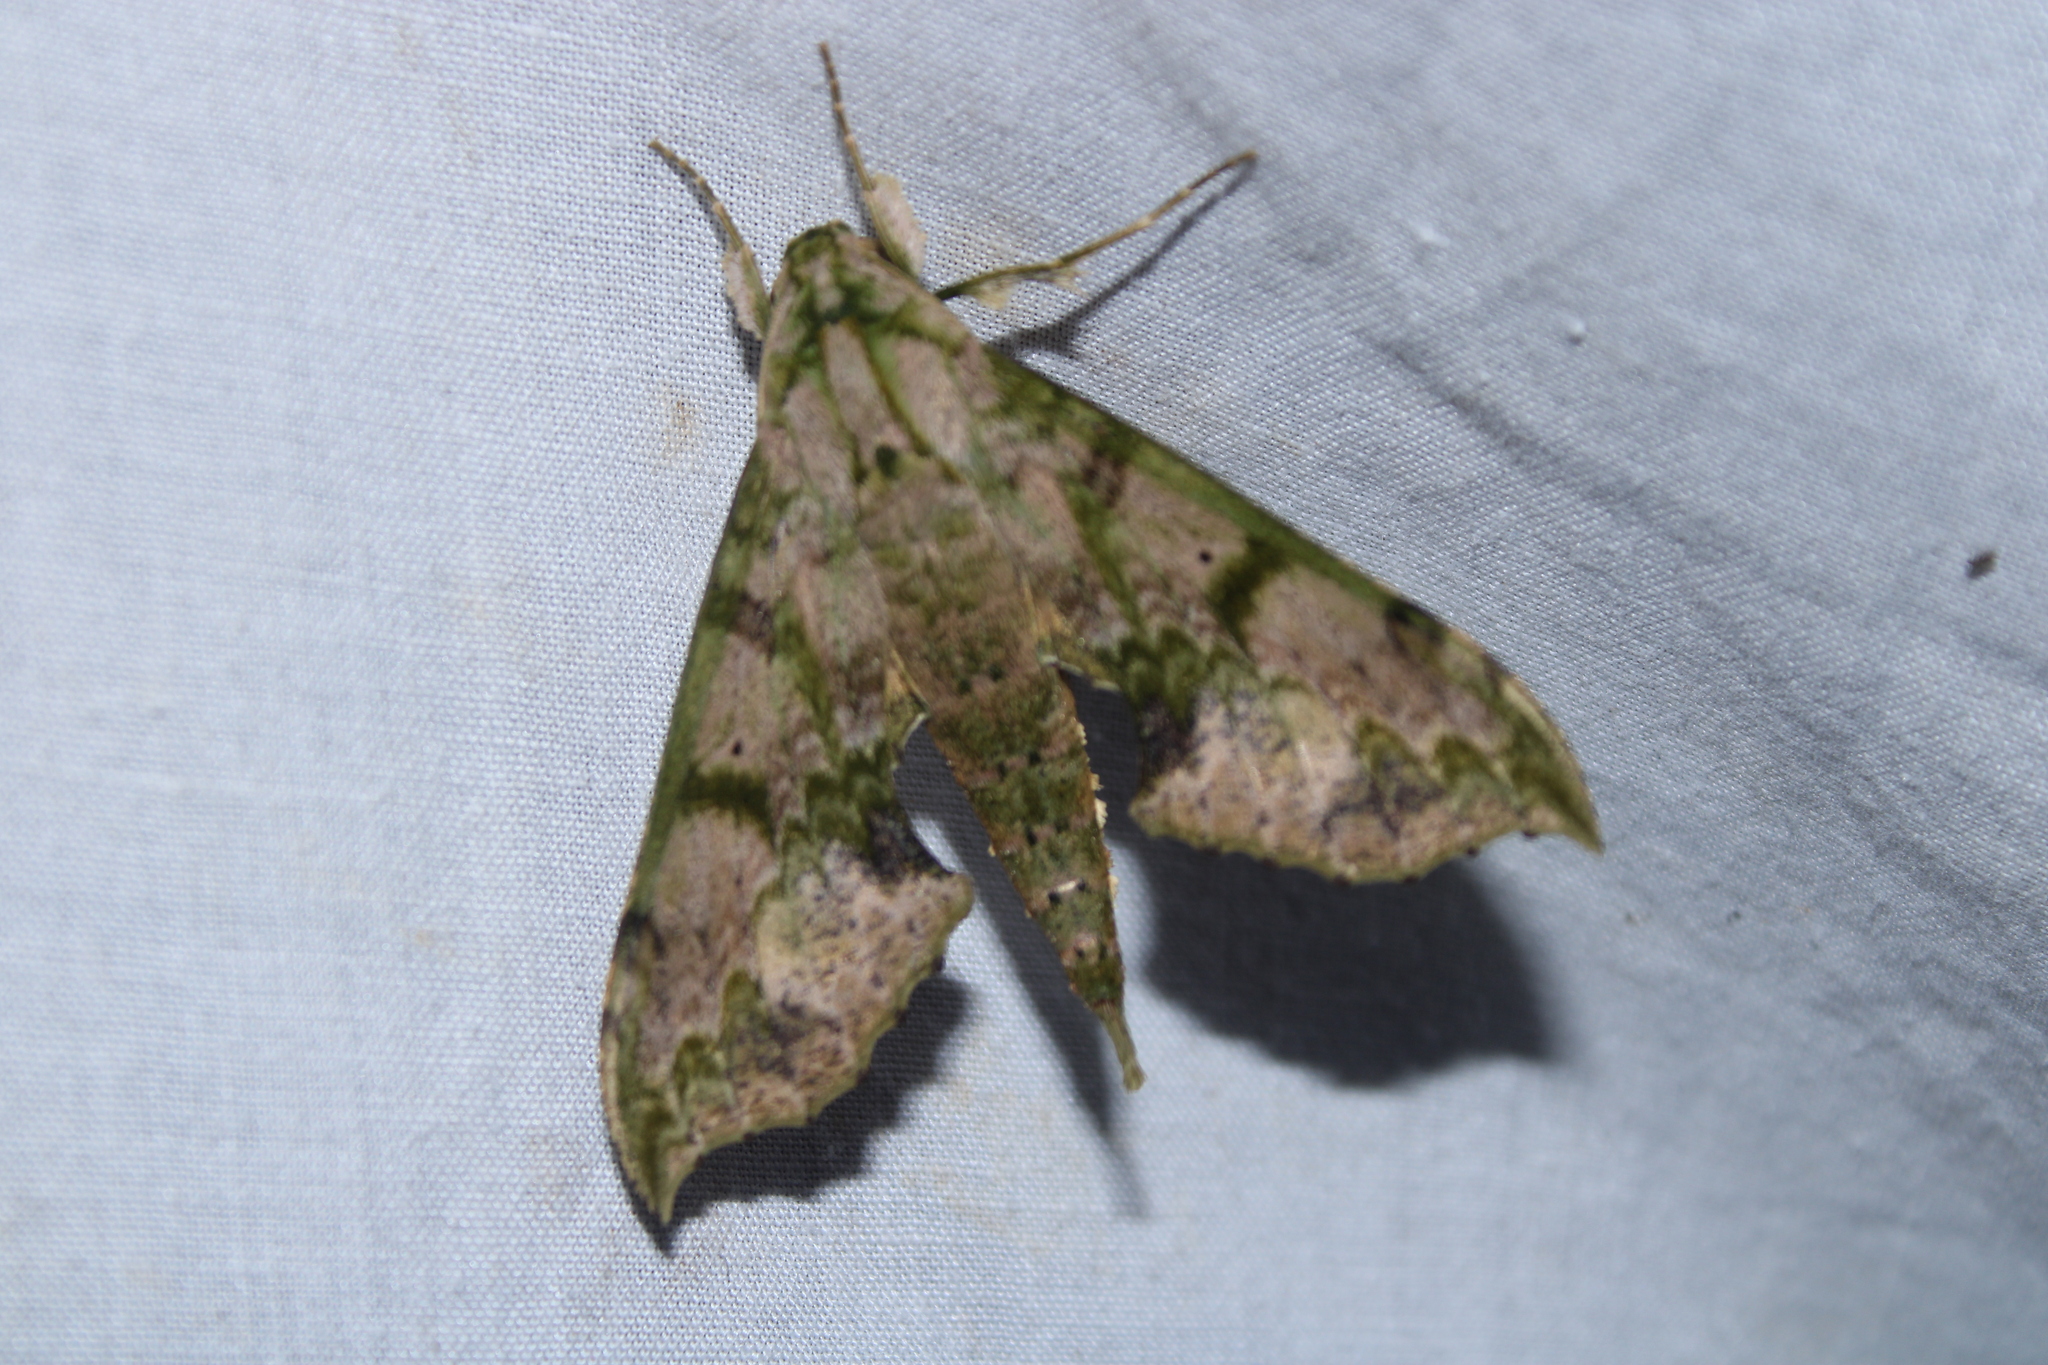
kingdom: Animalia
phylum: Arthropoda
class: Insecta
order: Lepidoptera
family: Sphingidae
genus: Xylophanes
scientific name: Xylophanes zurcheri
